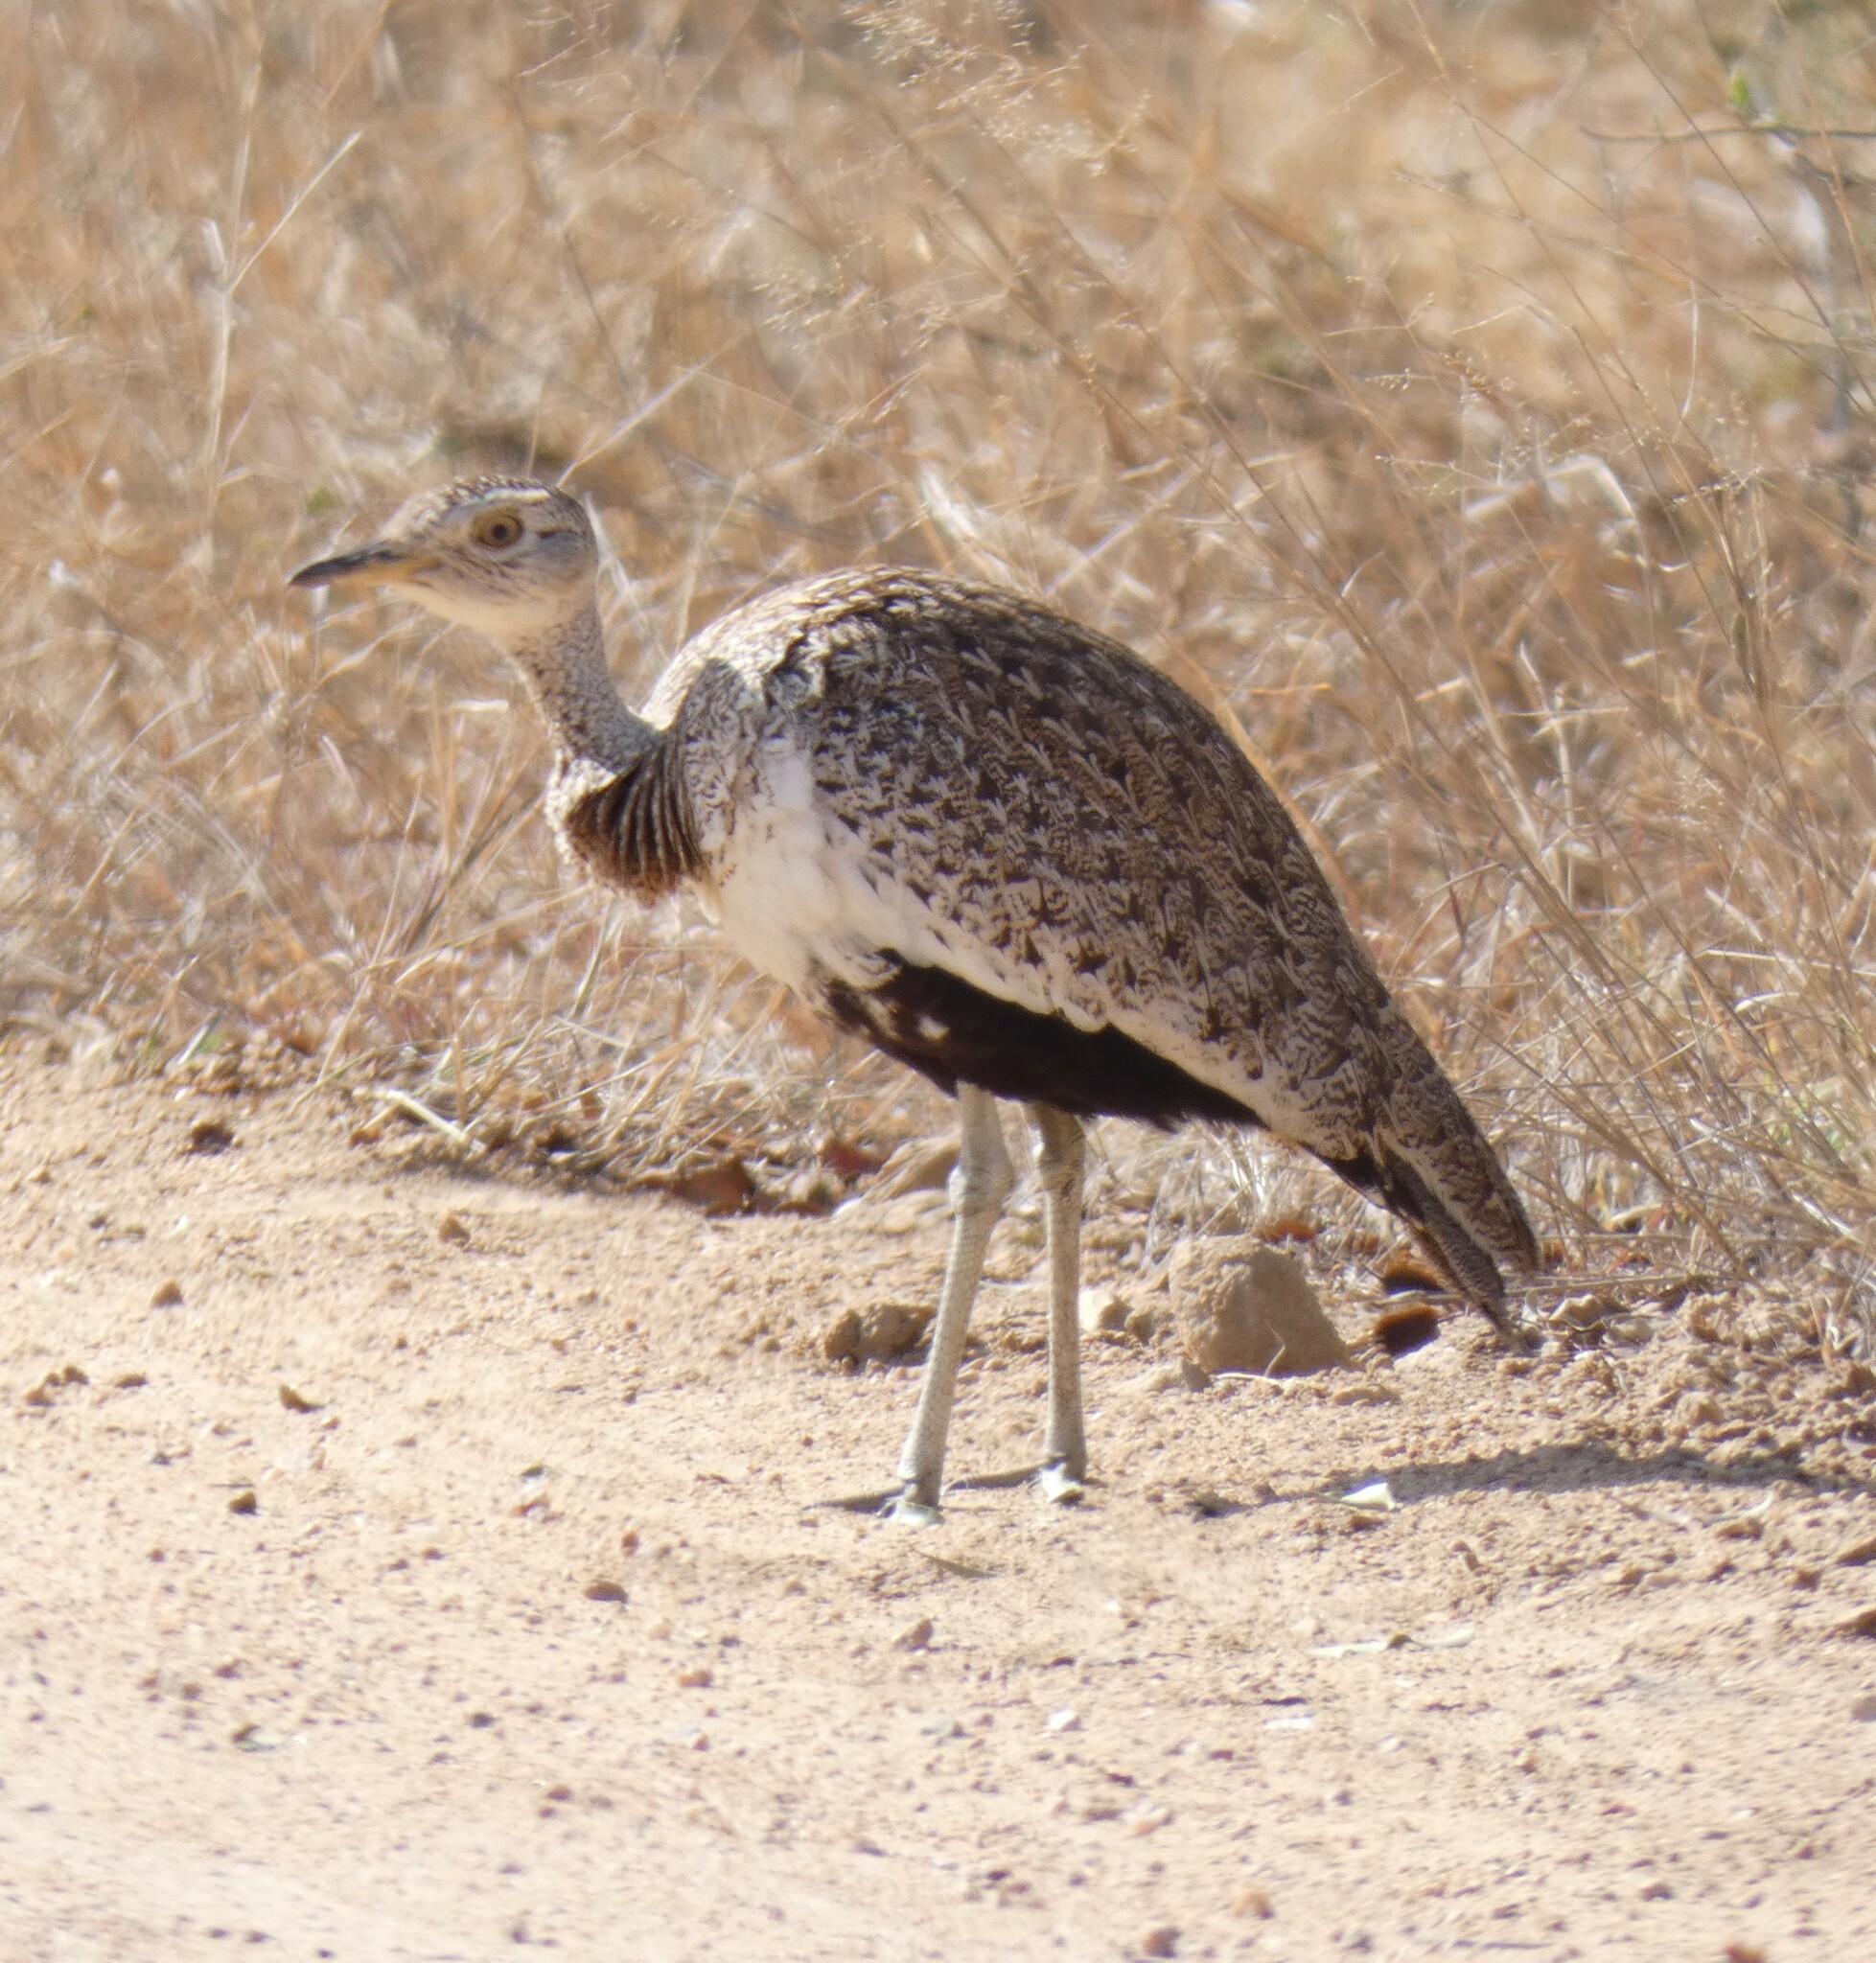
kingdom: Animalia
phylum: Chordata
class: Aves
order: Otidiformes
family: Otididae
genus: Lophotis
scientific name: Lophotis ruficrista
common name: Red-crested korhaan
